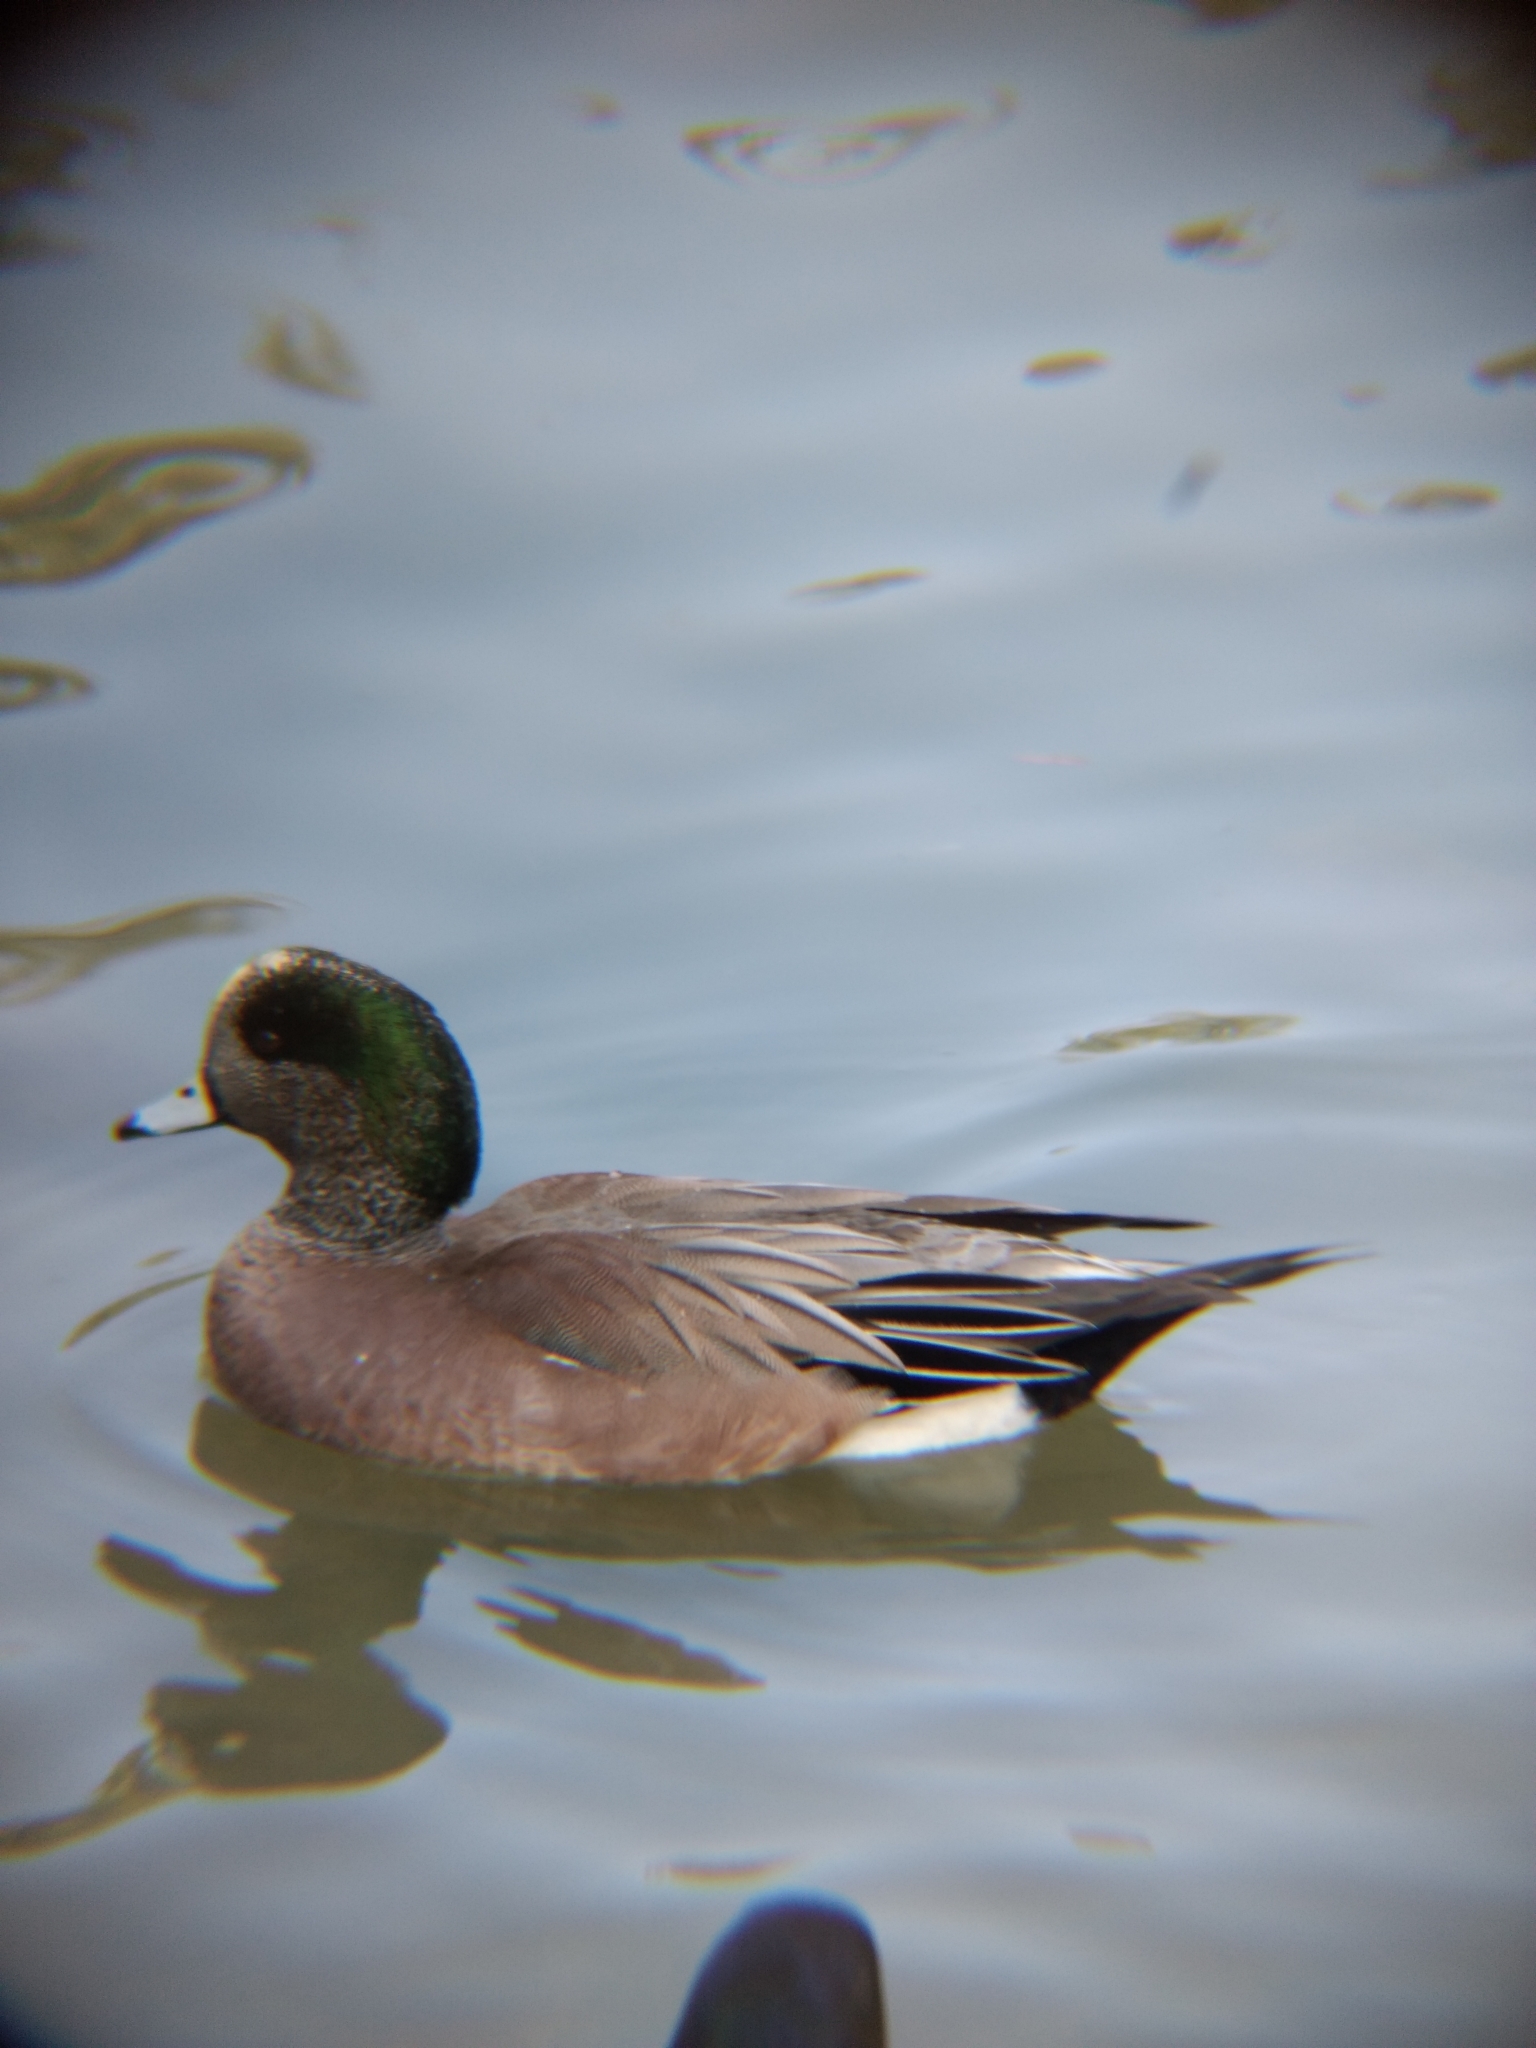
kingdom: Animalia
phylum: Chordata
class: Aves
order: Anseriformes
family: Anatidae
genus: Mareca
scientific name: Mareca americana
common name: American wigeon
